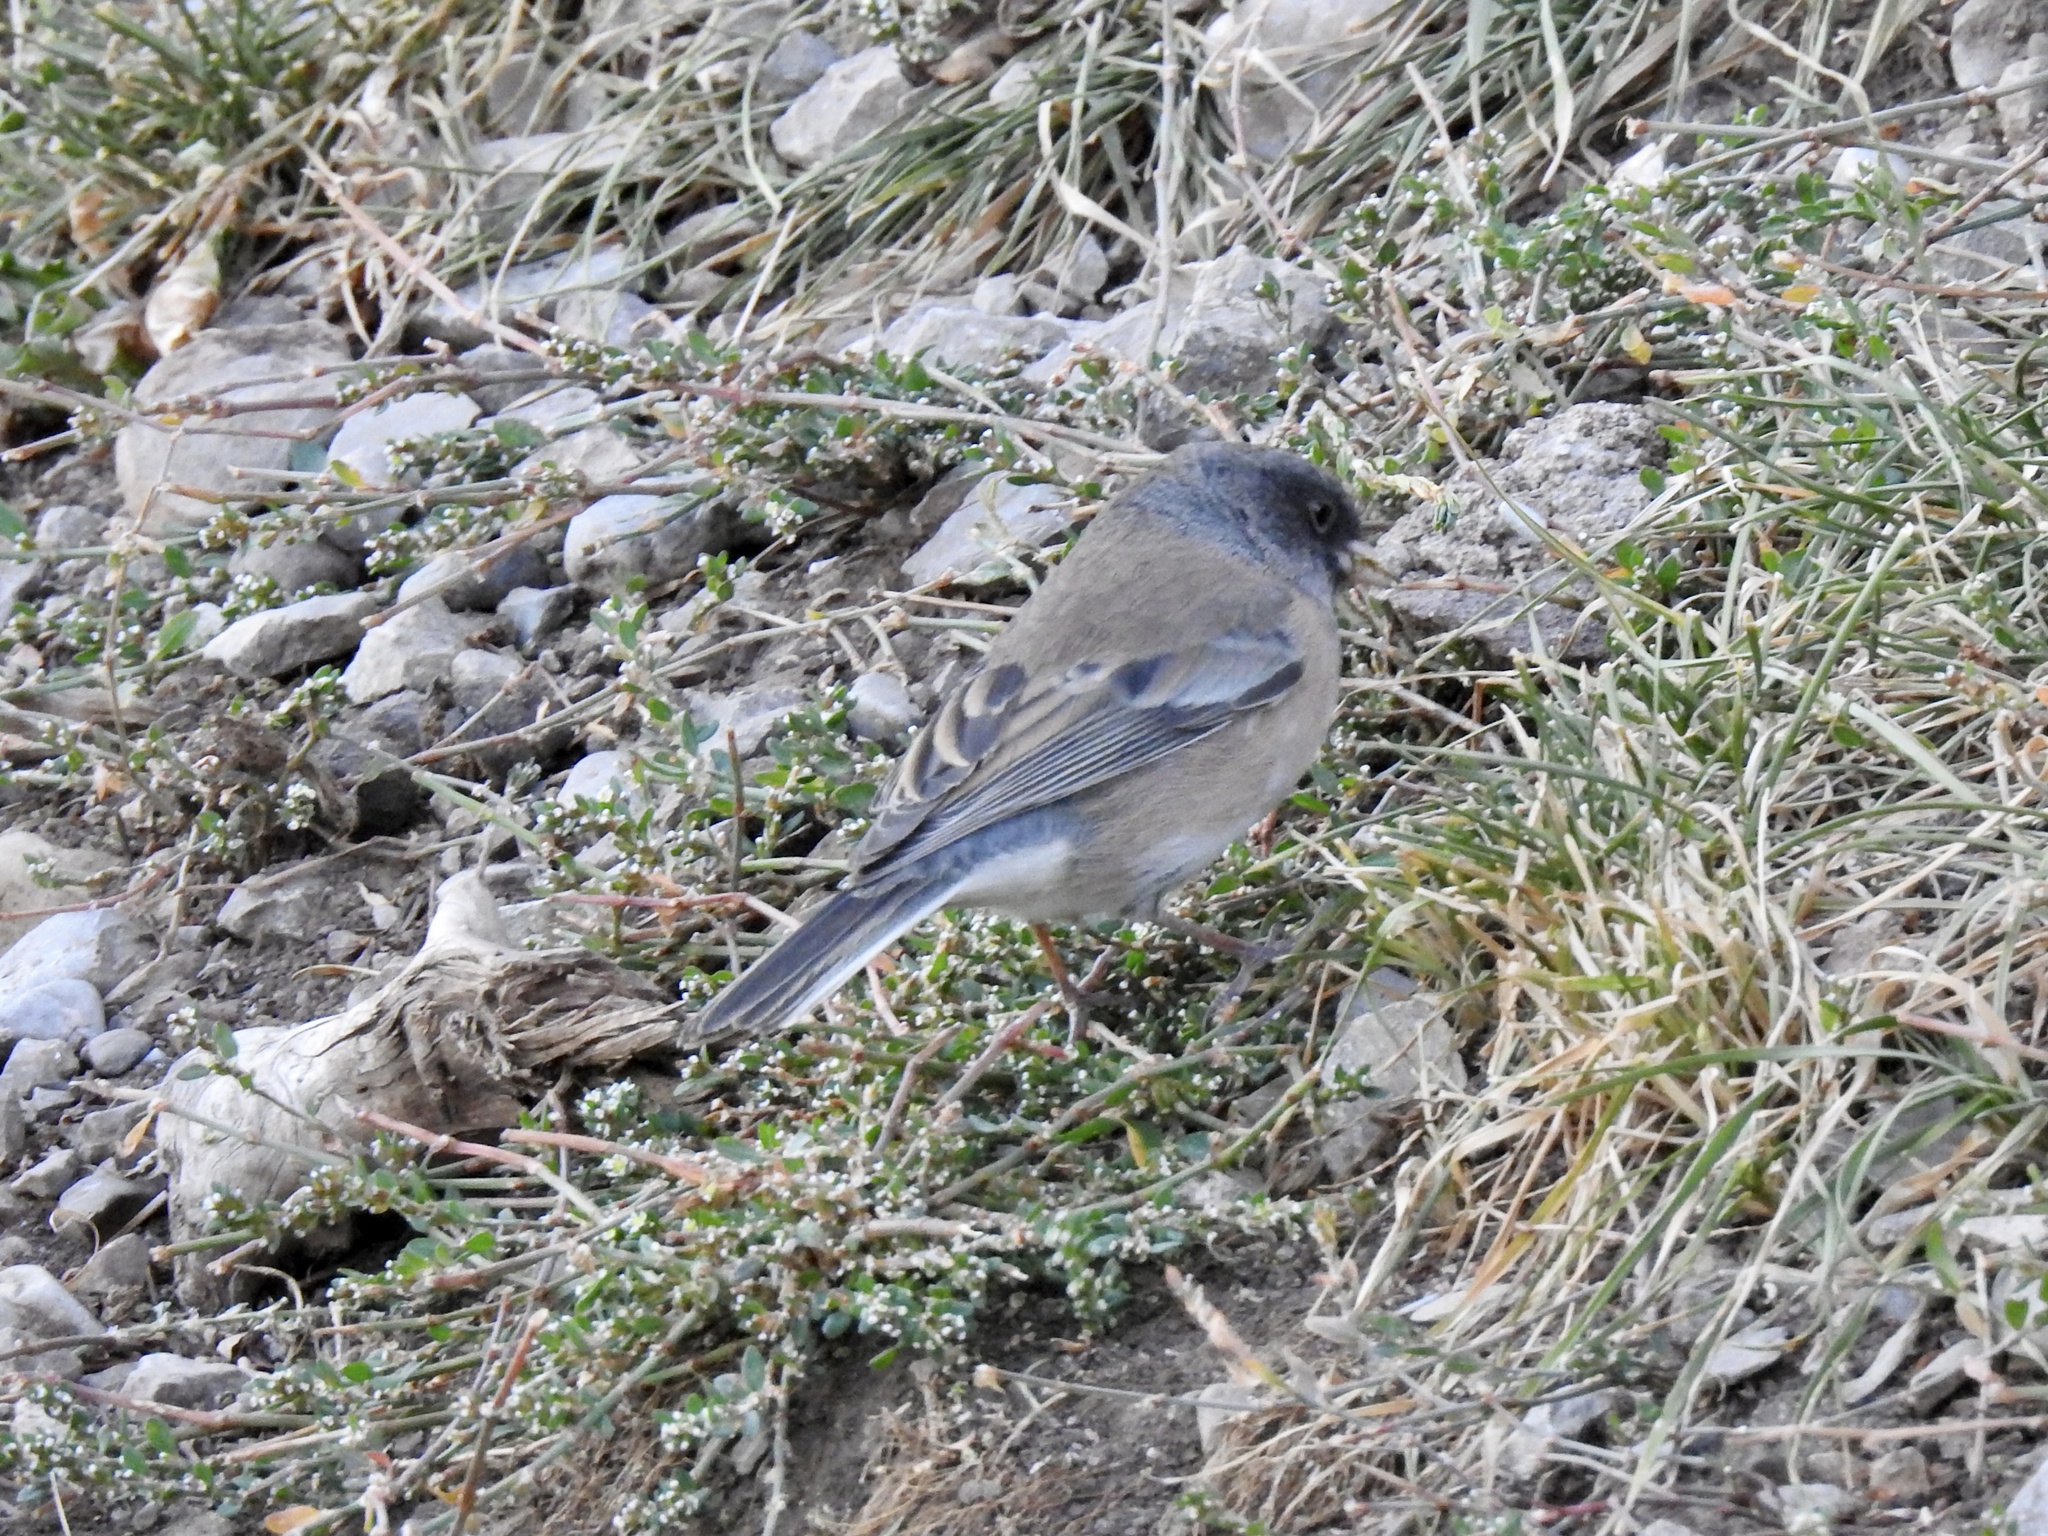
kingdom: Animalia
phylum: Chordata
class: Aves
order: Passeriformes
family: Passerellidae
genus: Junco
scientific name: Junco hyemalis
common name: Dark-eyed junco
